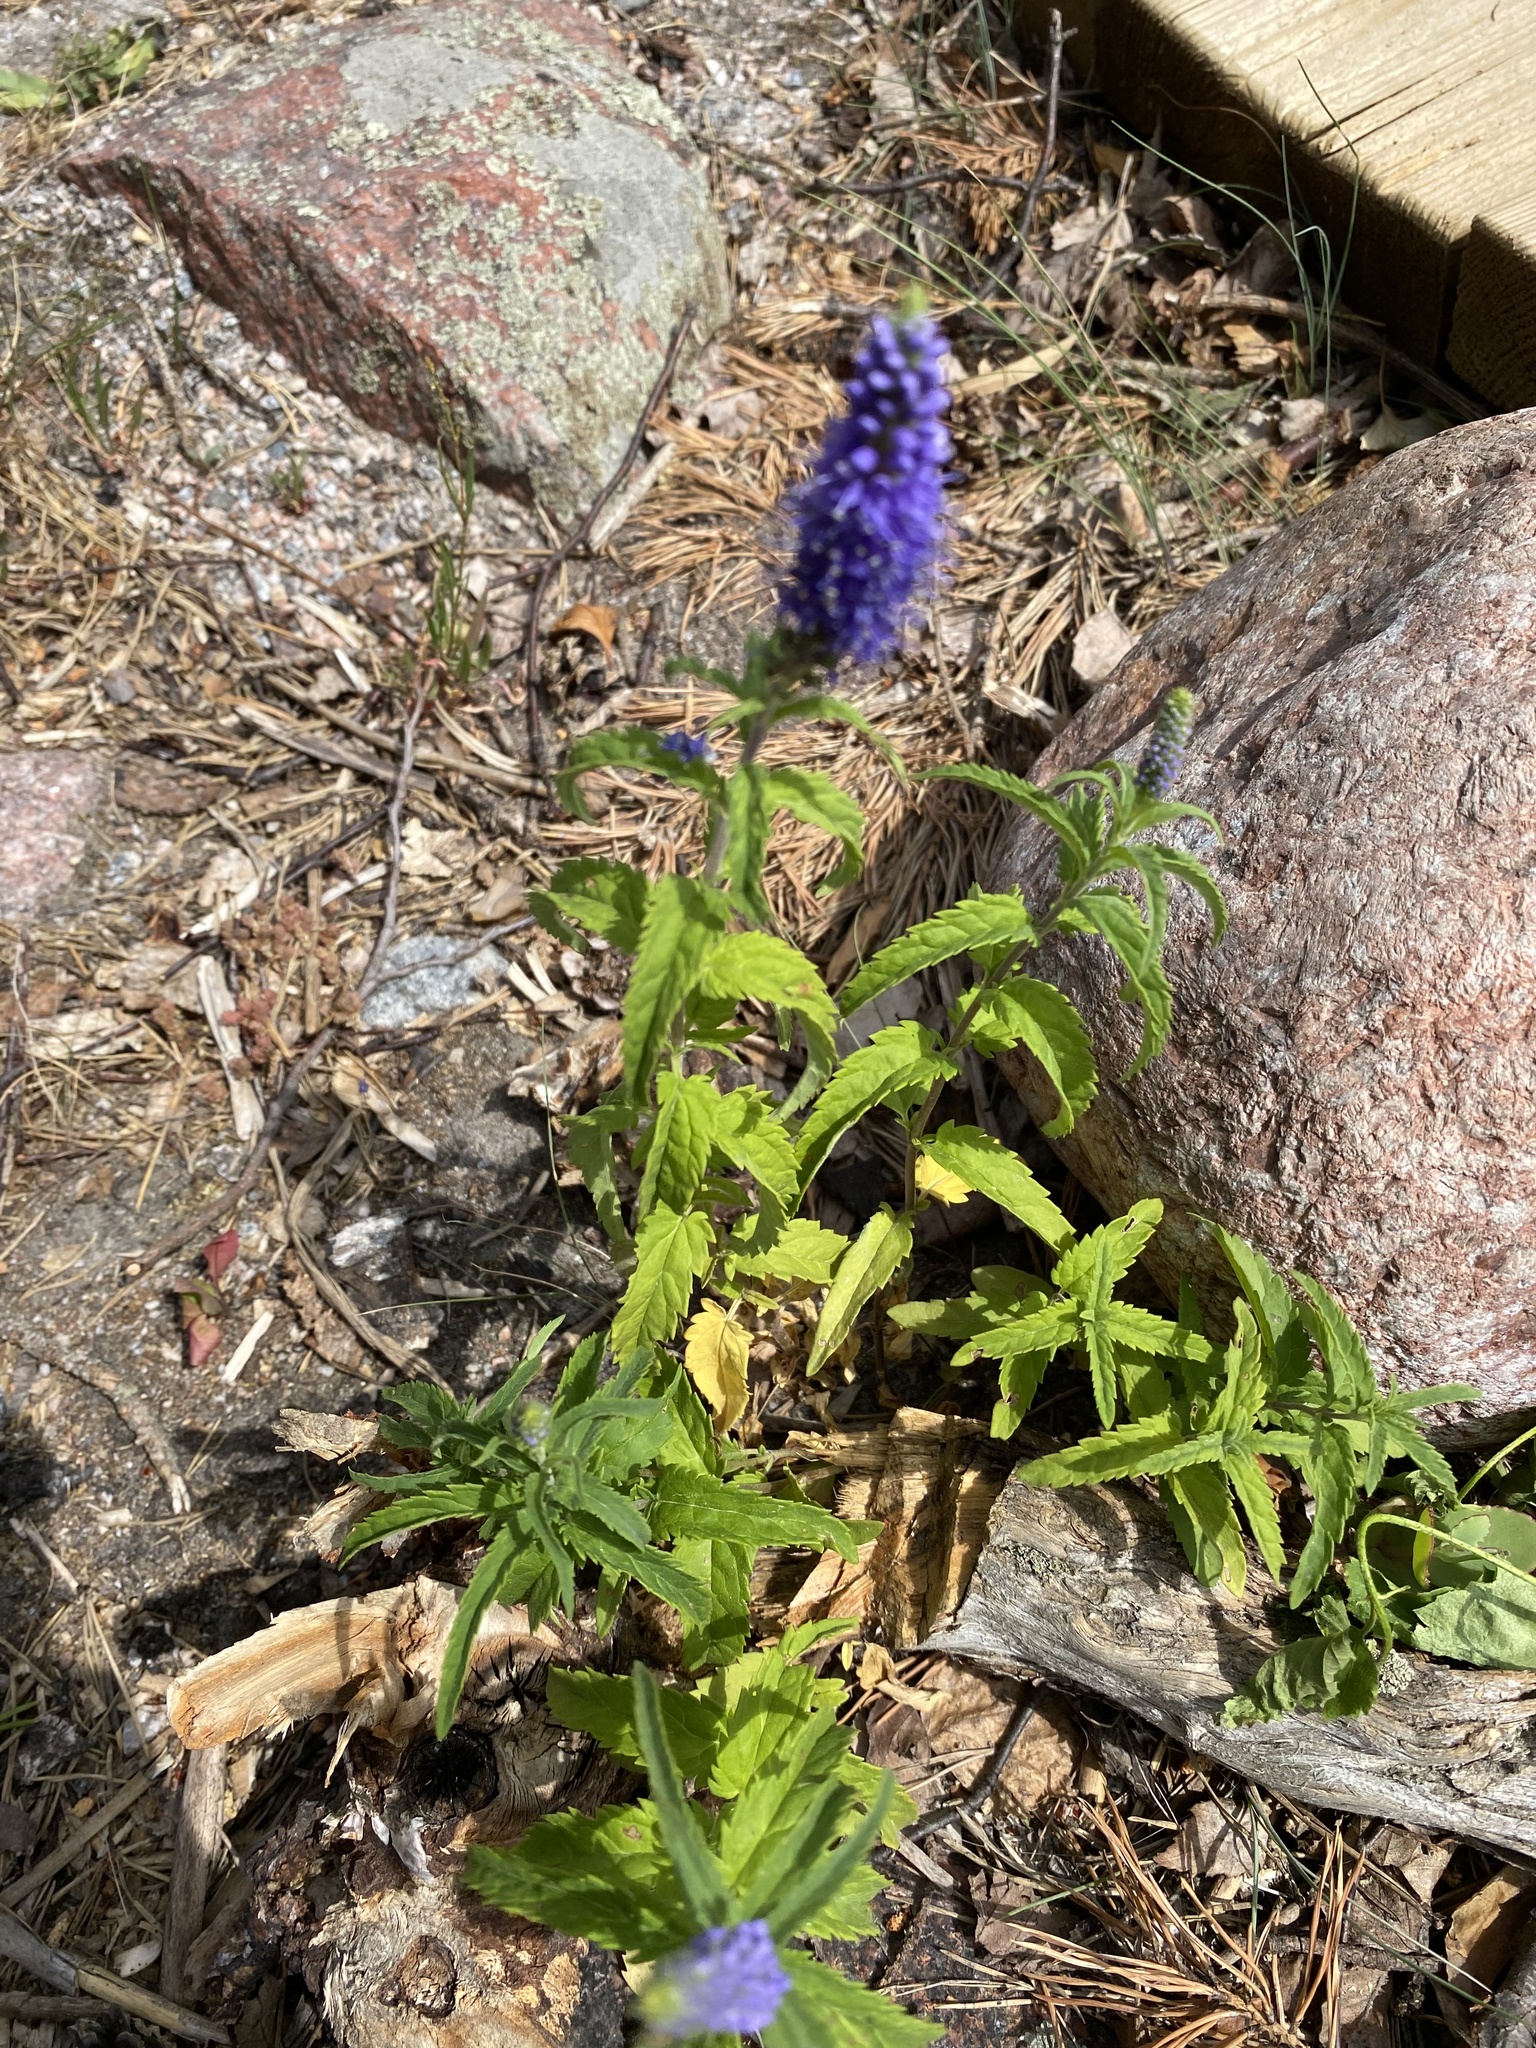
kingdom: Plantae
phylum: Tracheophyta
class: Magnoliopsida
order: Lamiales
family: Plantaginaceae
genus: Veronica
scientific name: Veronica longifolia
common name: Garden speedwell
